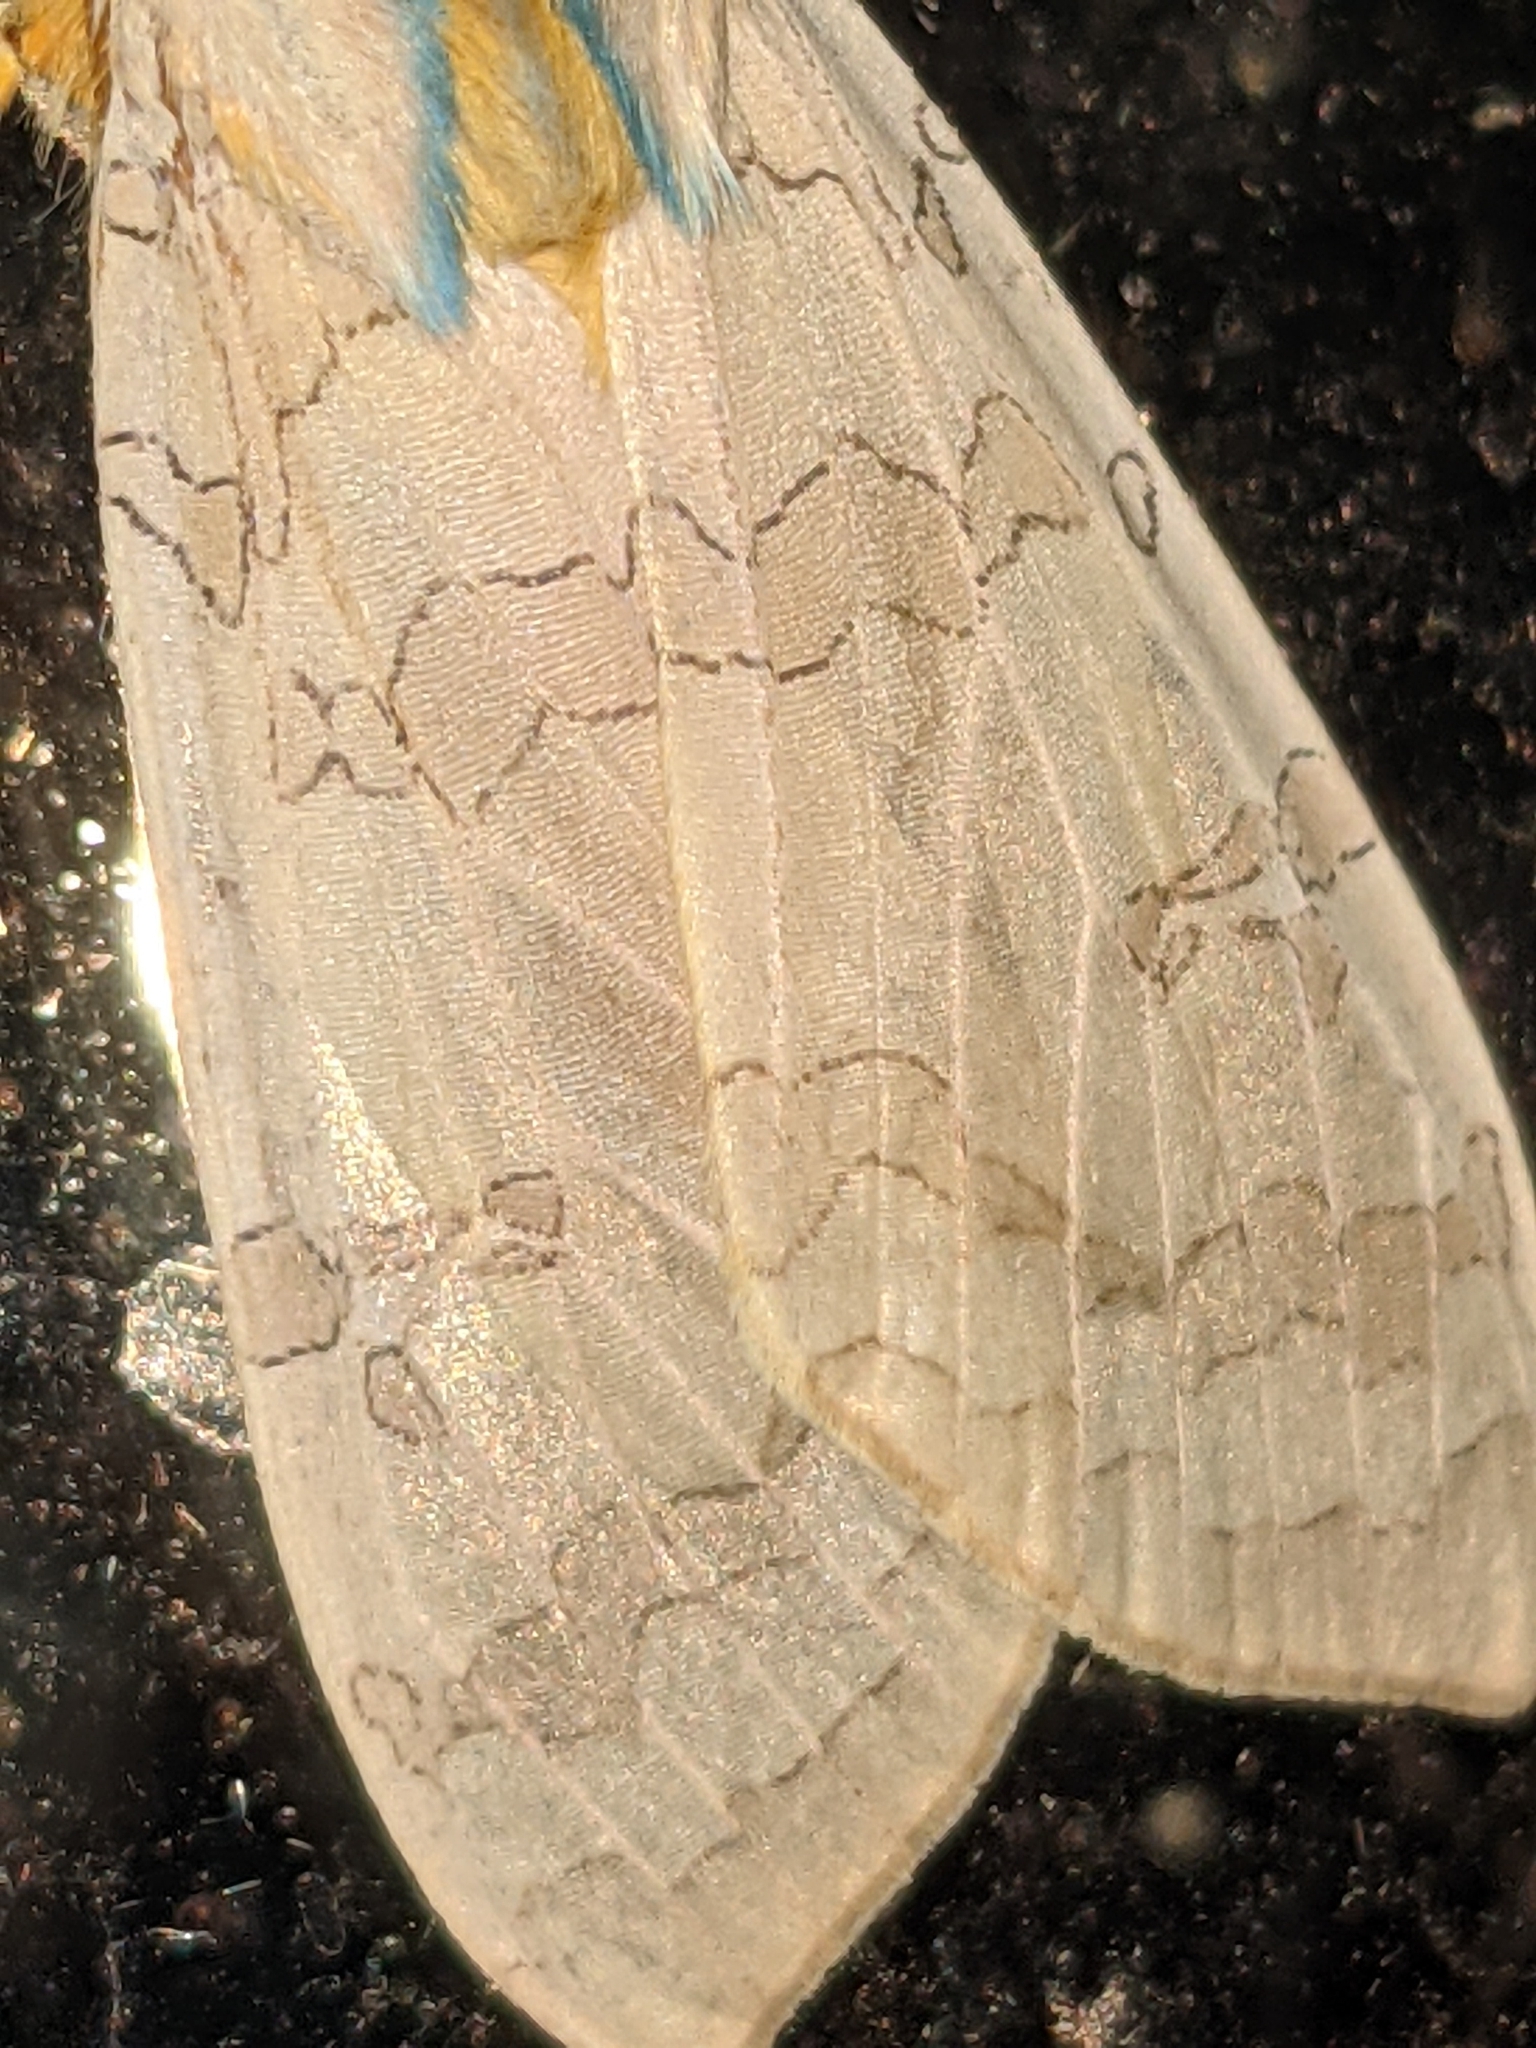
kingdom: Animalia
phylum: Arthropoda
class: Insecta
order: Lepidoptera
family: Erebidae
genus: Halysidota
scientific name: Halysidota
